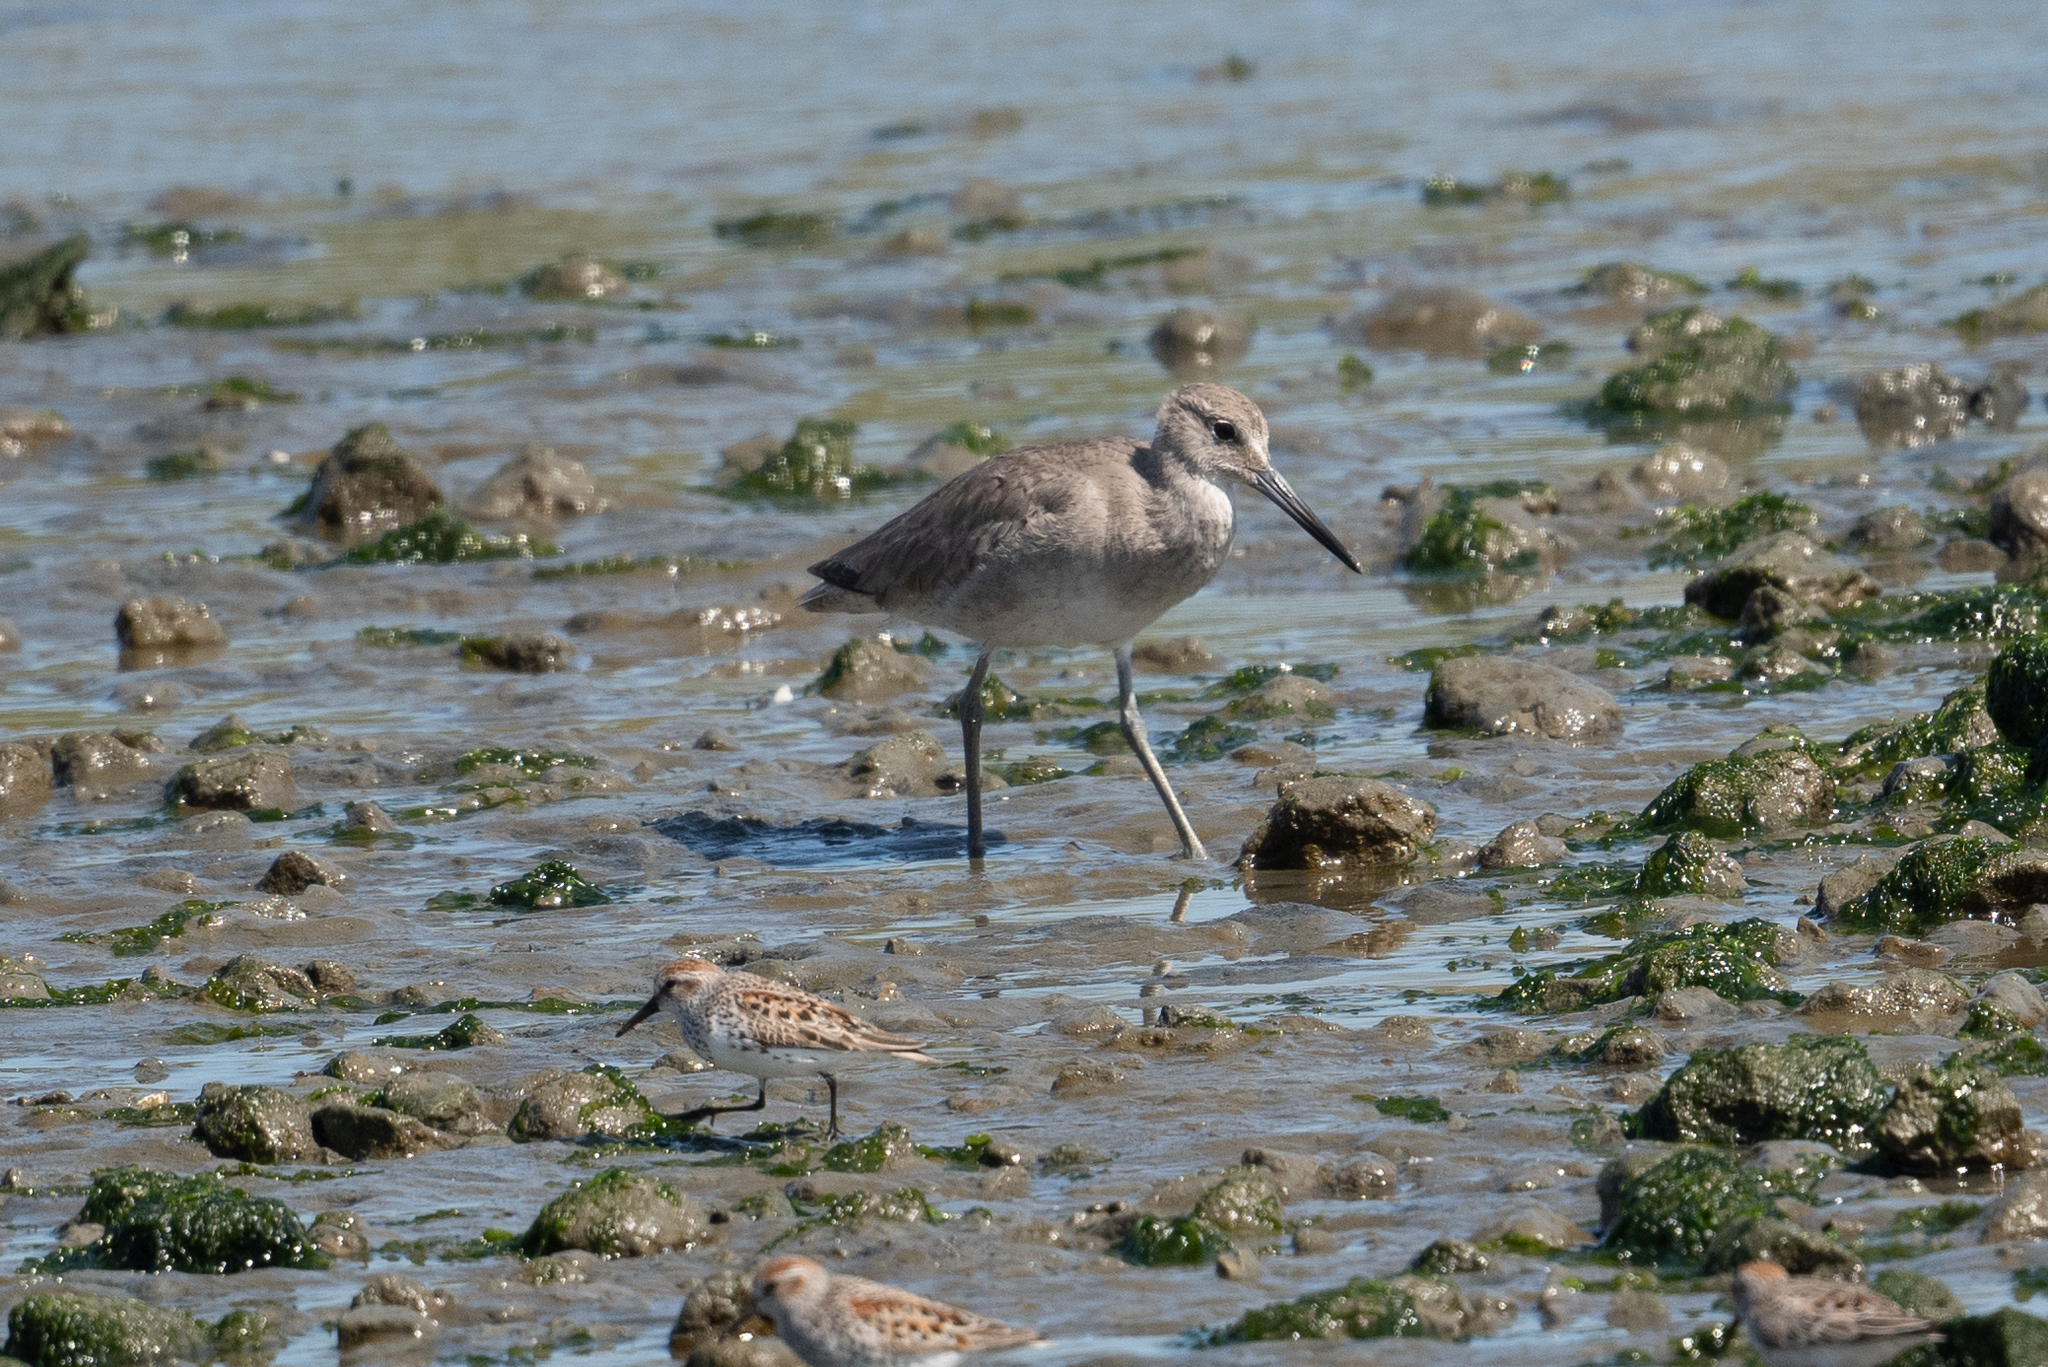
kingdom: Animalia
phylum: Chordata
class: Aves
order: Charadriiformes
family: Scolopacidae
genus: Tringa
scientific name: Tringa semipalmata
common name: Willet
